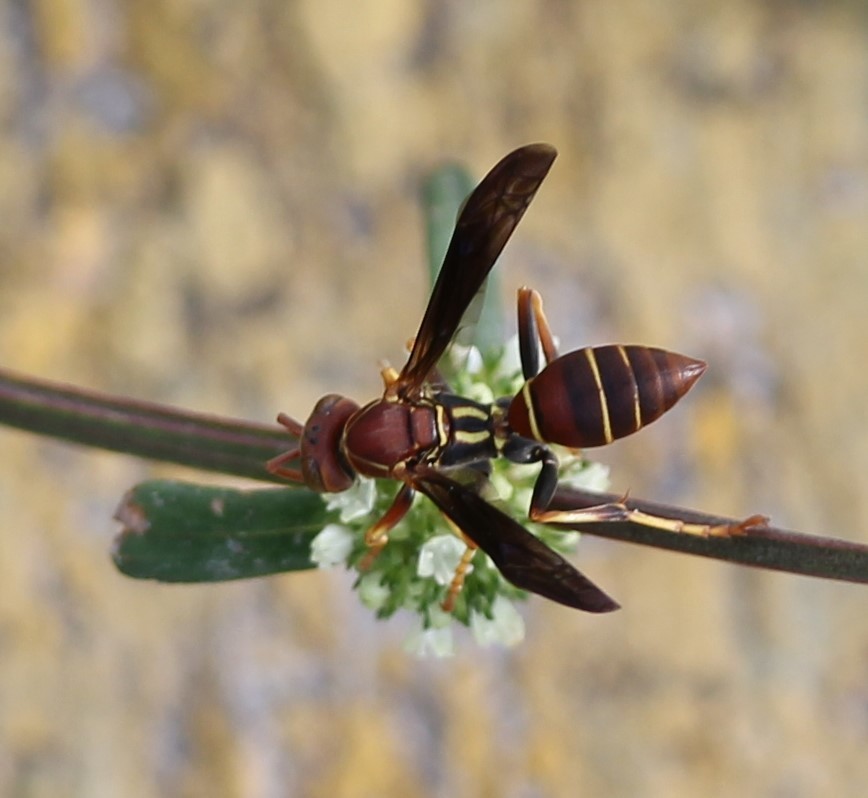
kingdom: Animalia
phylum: Arthropoda
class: Insecta
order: Hymenoptera
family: Eumenidae
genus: Polistes
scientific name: Polistes dorsalis
